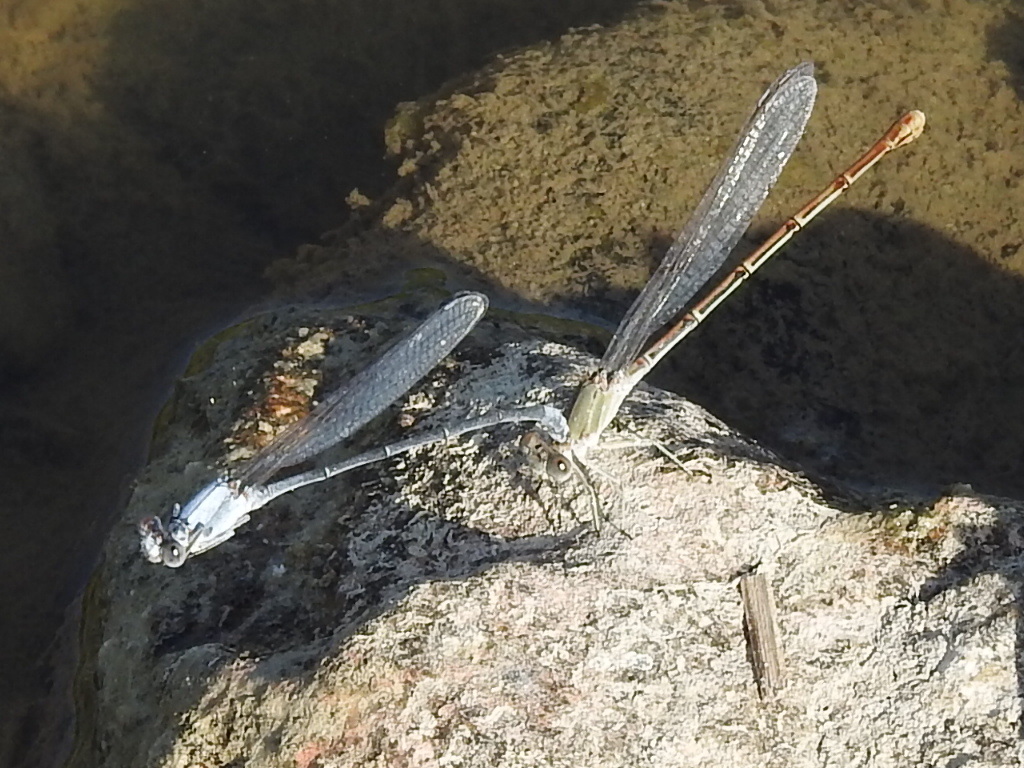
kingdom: Animalia
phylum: Arthropoda
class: Insecta
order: Odonata
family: Coenagrionidae
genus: Argia
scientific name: Argia moesta
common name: Powdered dancer
